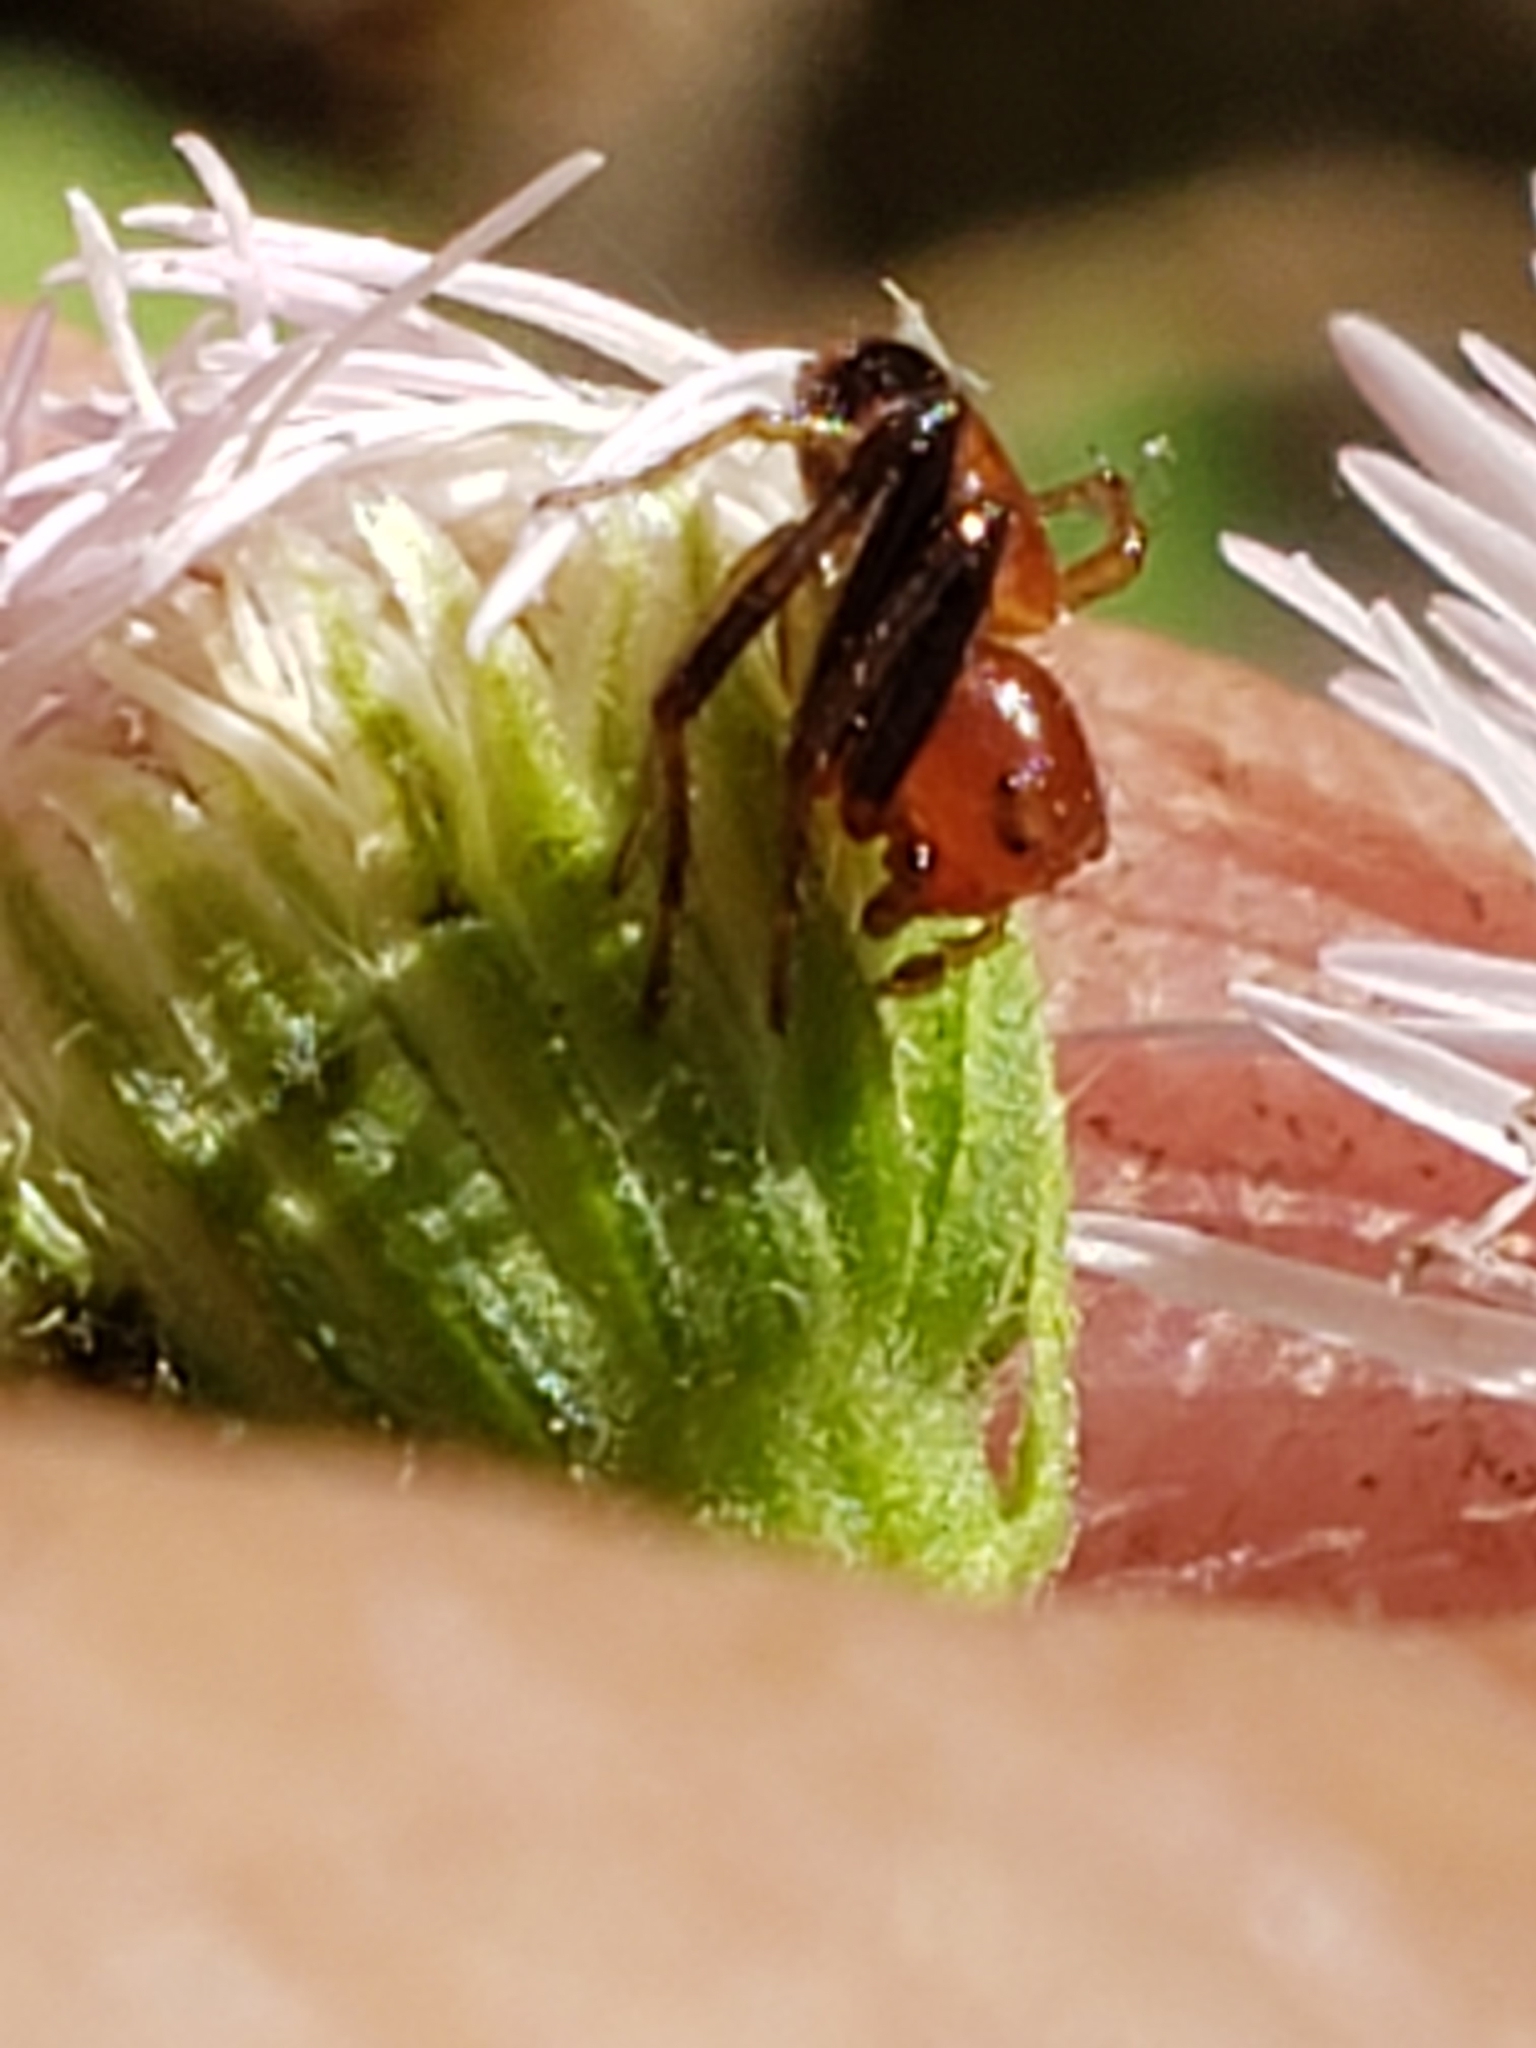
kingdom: Animalia
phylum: Arthropoda
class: Arachnida
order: Araneae
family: Thomisidae
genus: Synema
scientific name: Synema parvulum
